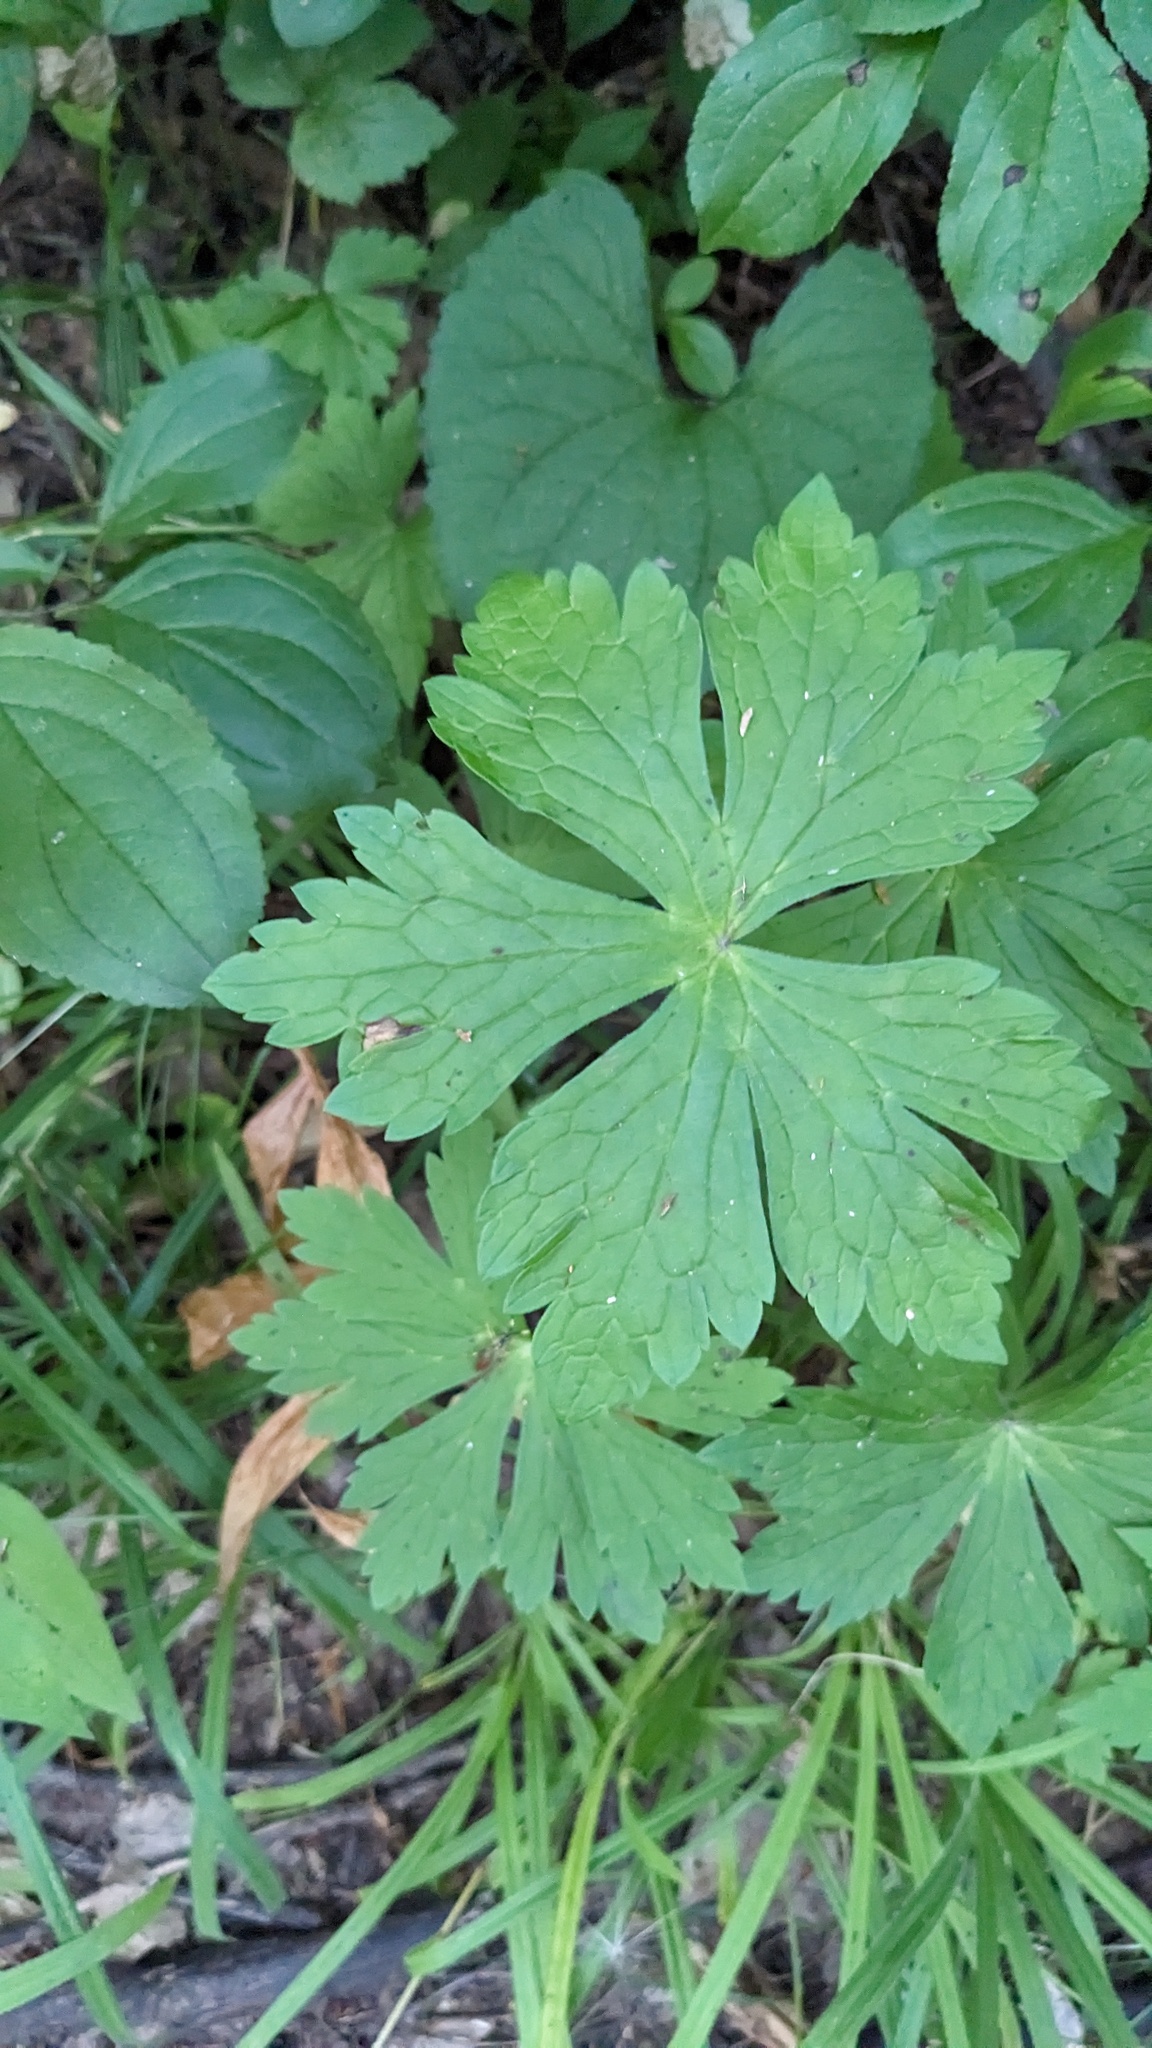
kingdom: Plantae
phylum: Tracheophyta
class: Magnoliopsida
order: Geraniales
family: Geraniaceae
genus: Geranium
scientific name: Geranium maculatum
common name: Spotted geranium
